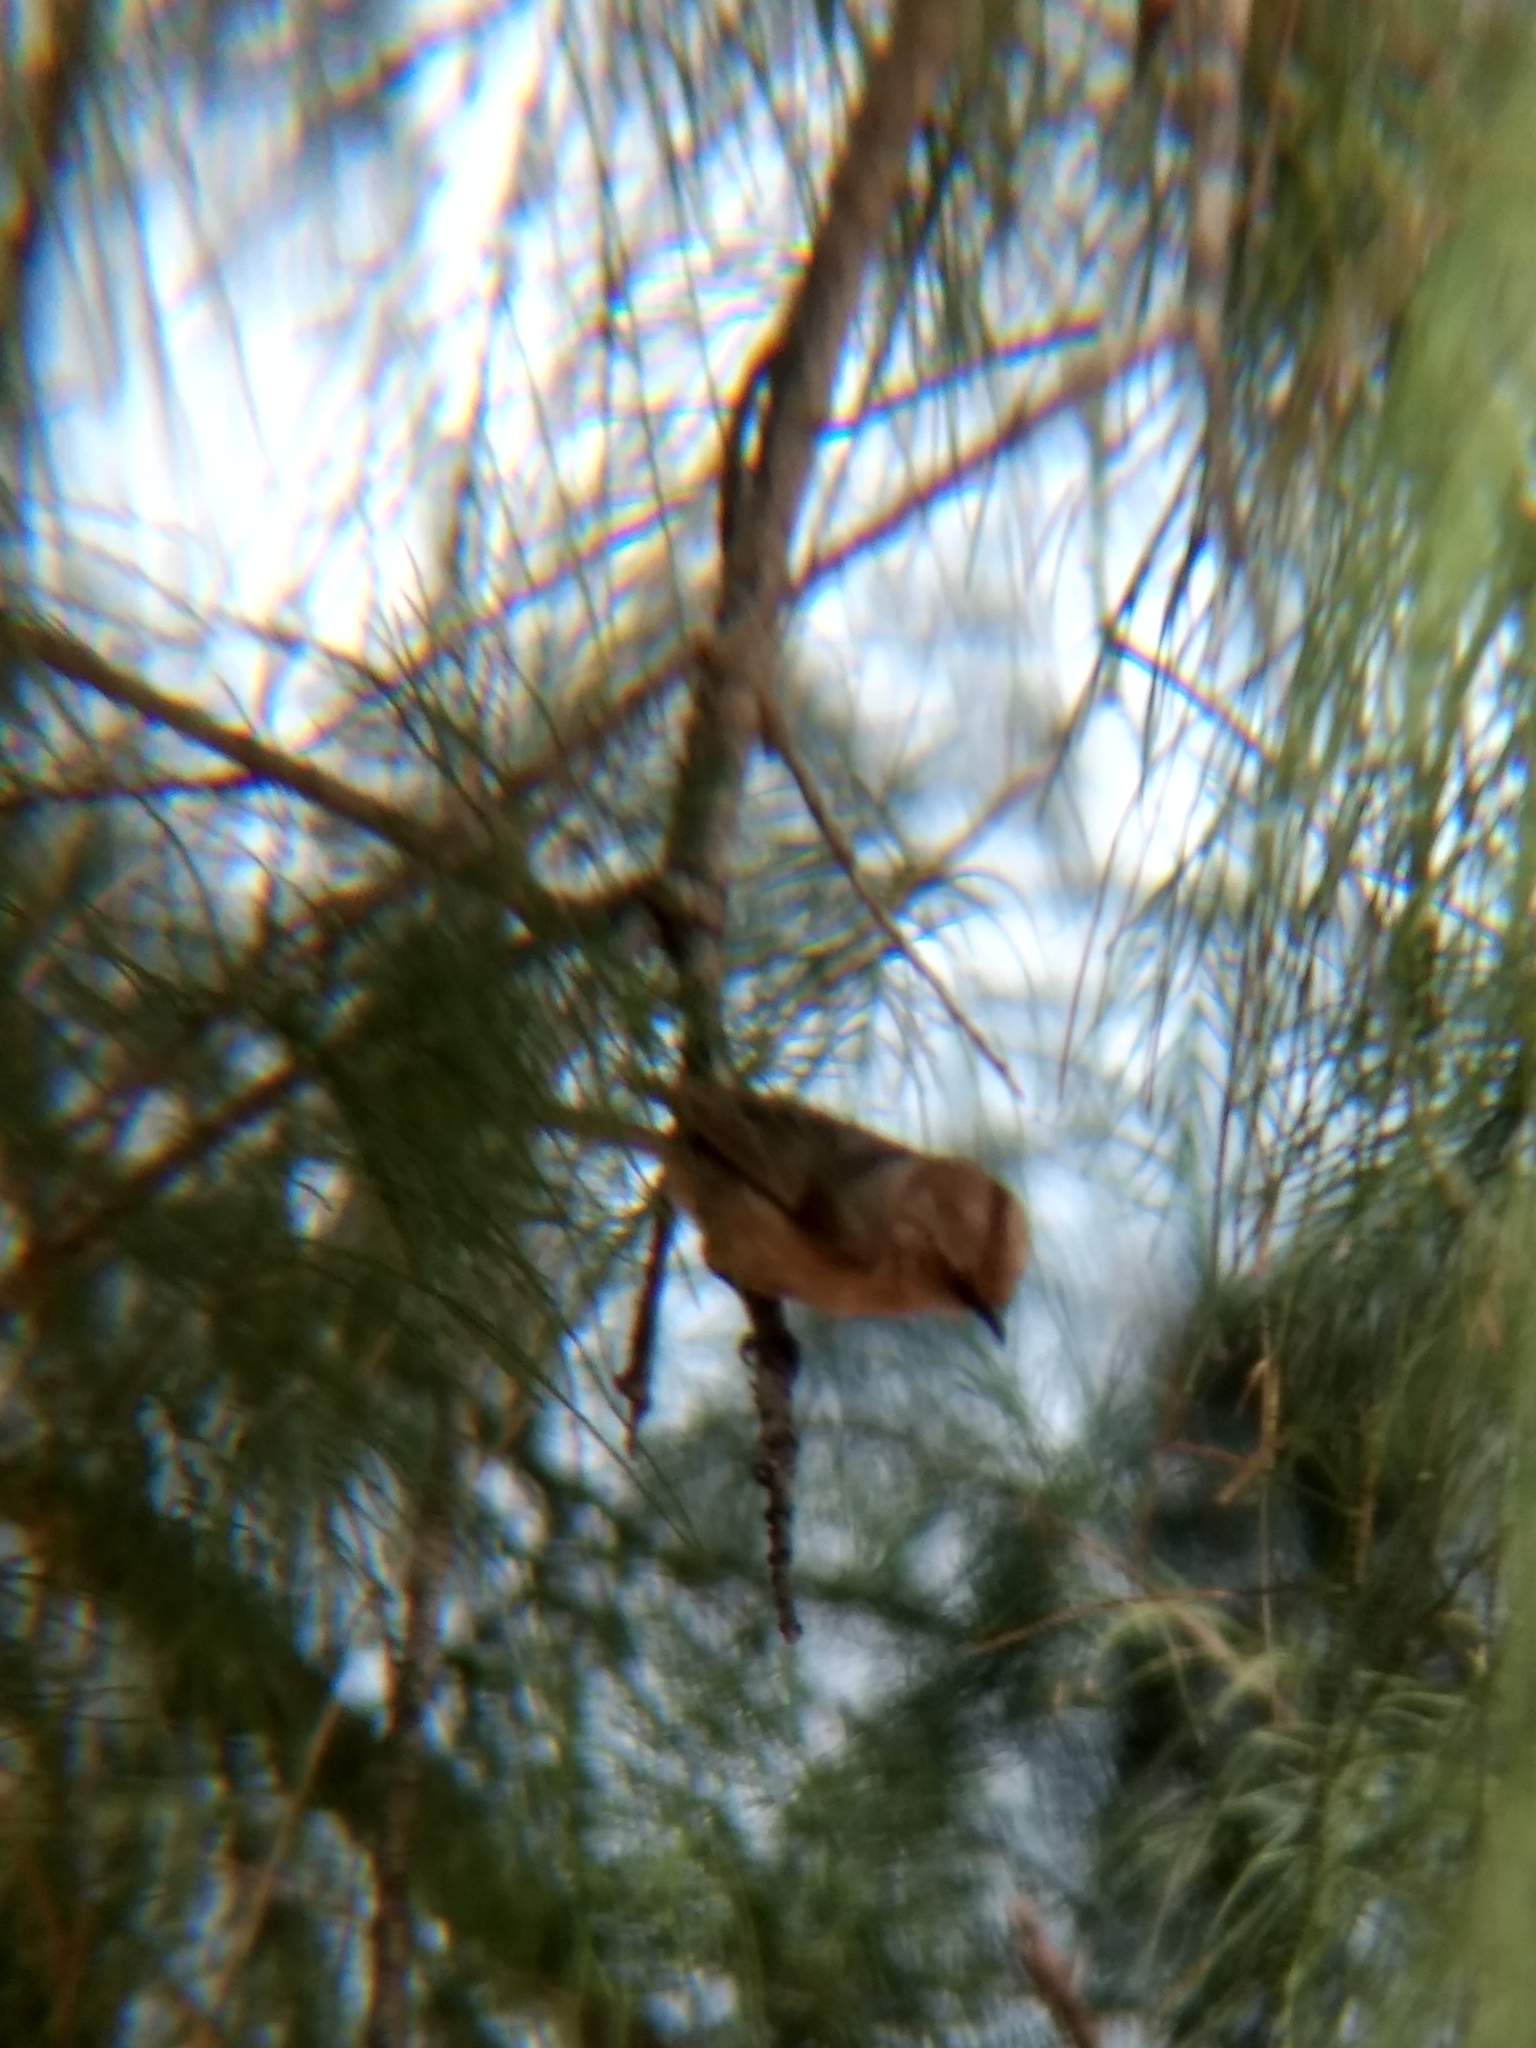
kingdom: Animalia
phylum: Chordata
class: Aves
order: Passeriformes
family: Aegithalidae
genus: Psaltriparus
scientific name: Psaltriparus minimus
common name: American bushtit
